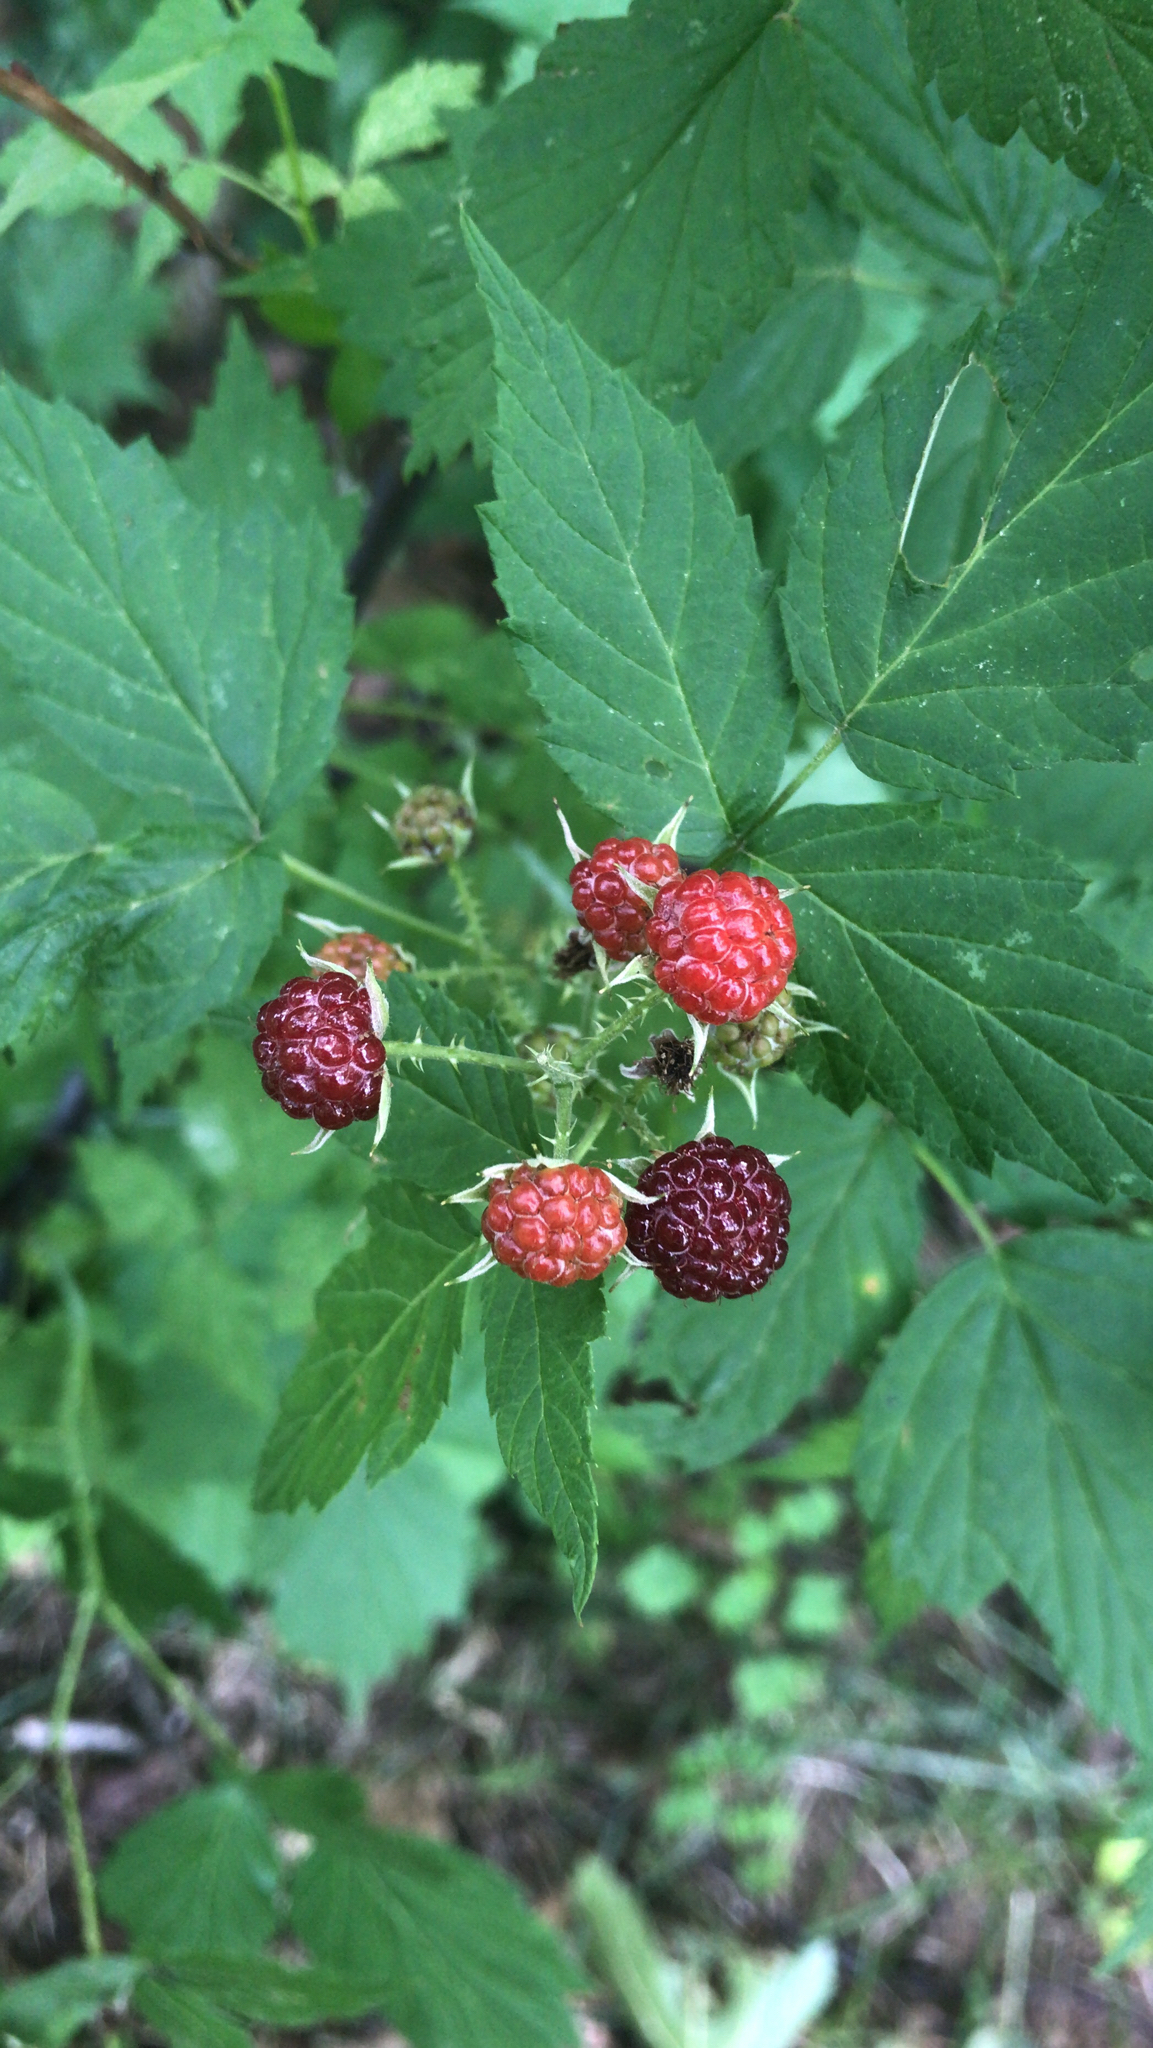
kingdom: Plantae
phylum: Tracheophyta
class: Magnoliopsida
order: Rosales
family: Rosaceae
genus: Rubus
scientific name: Rubus occidentalis
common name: Black raspberry
